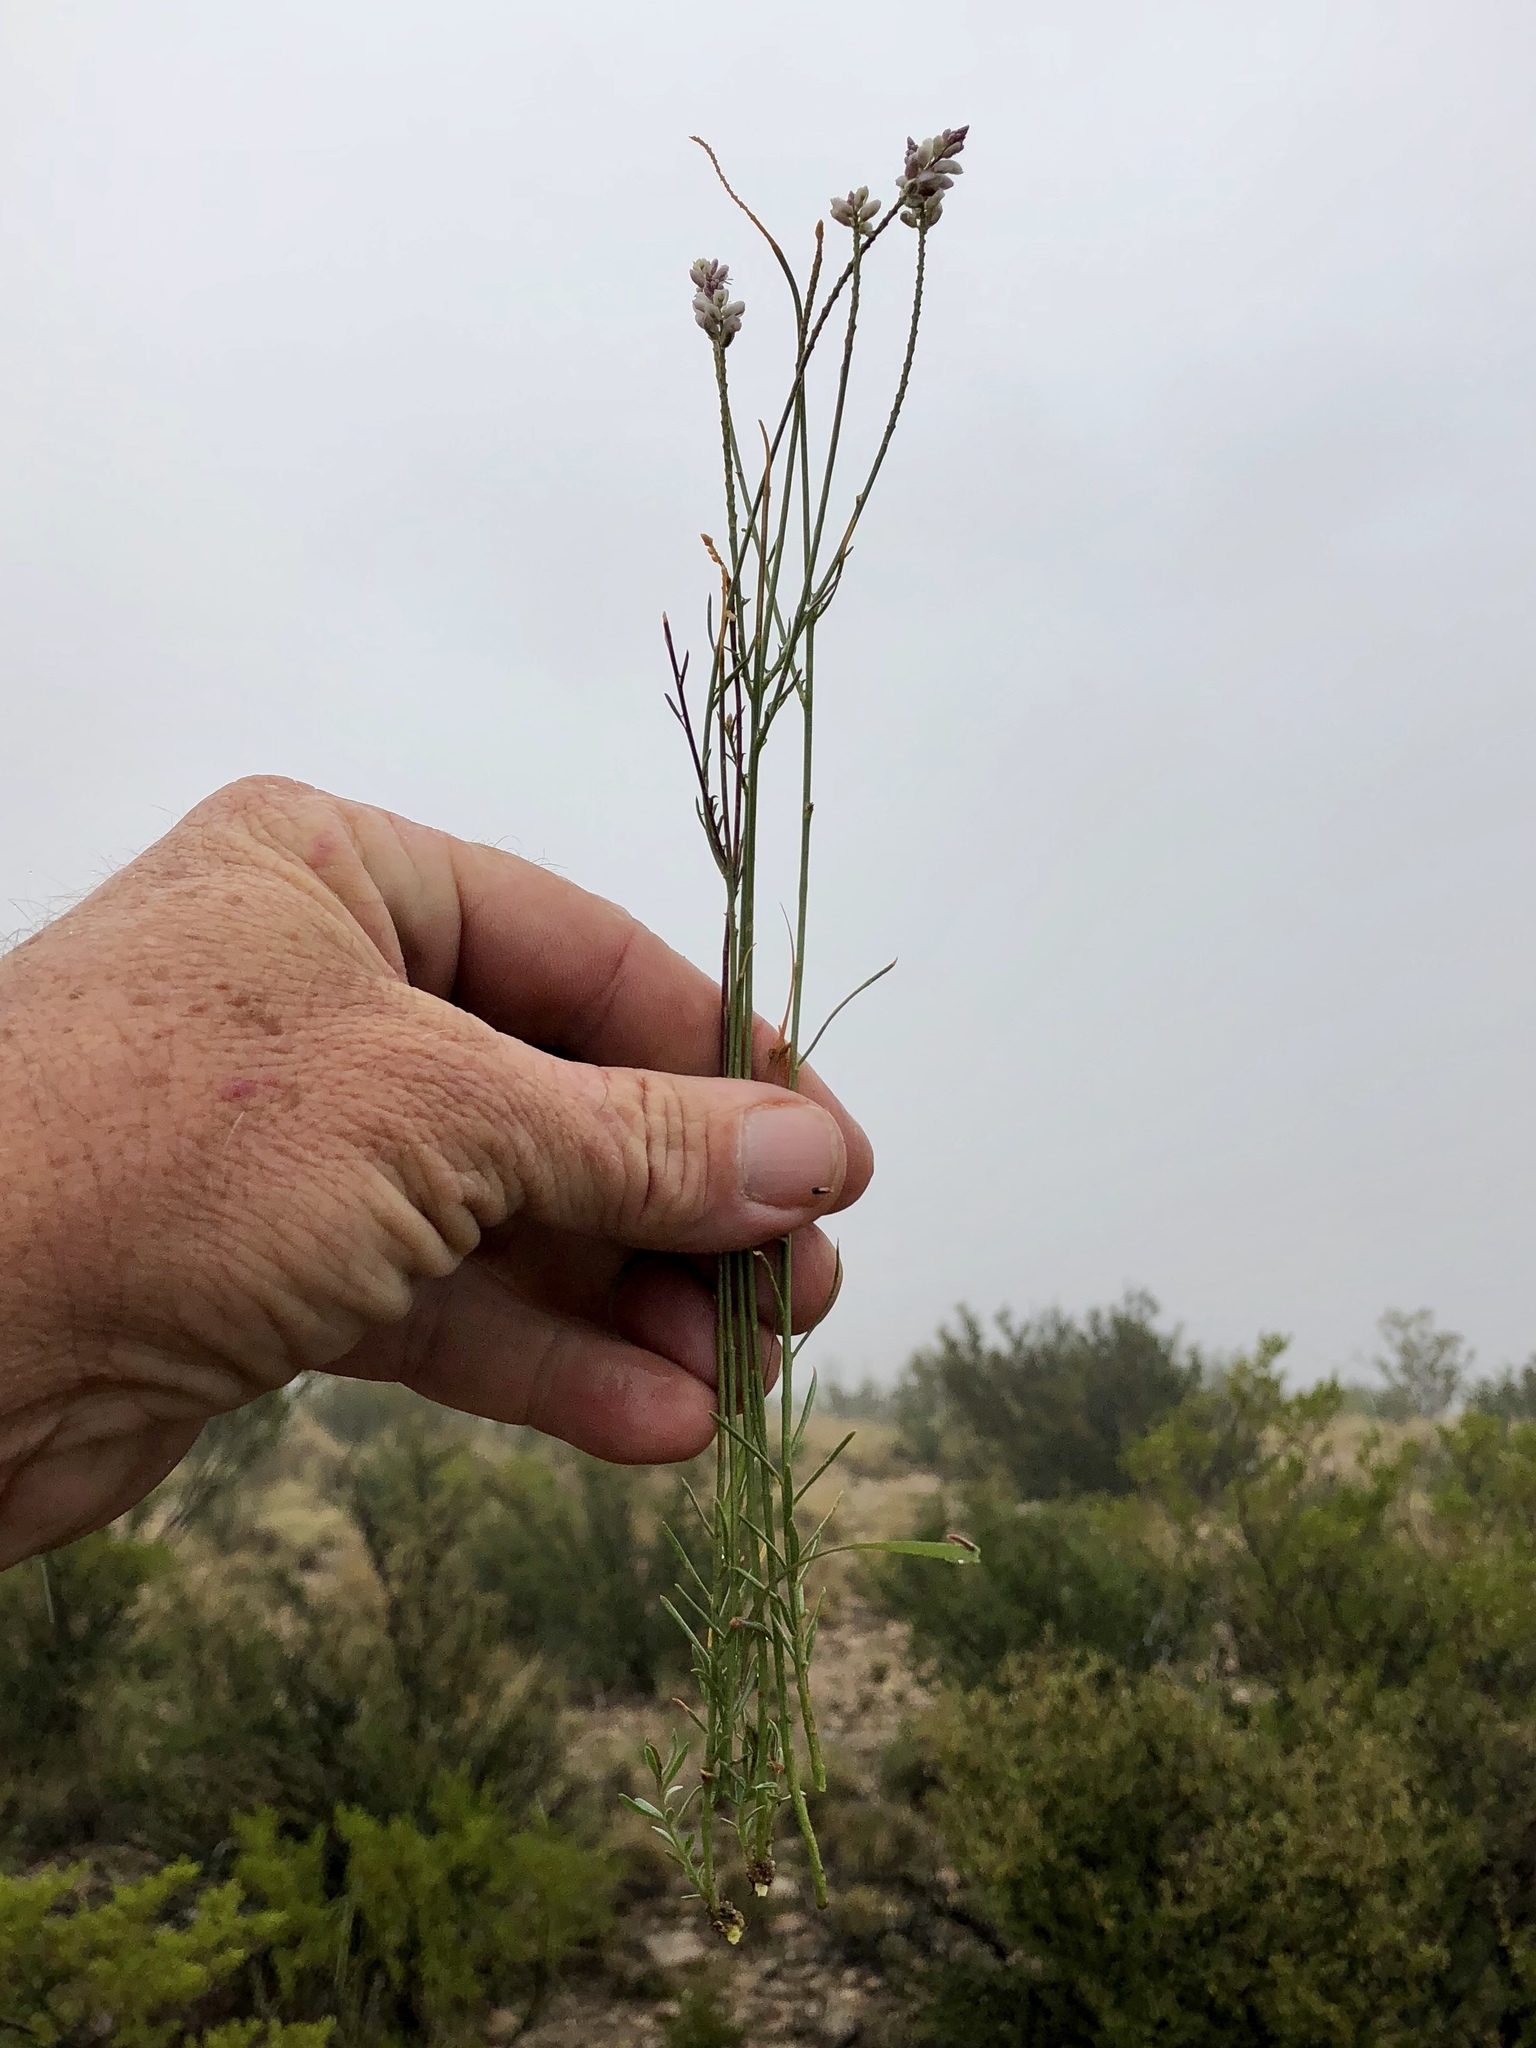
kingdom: Plantae
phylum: Tracheophyta
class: Magnoliopsida
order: Fabales
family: Polygalaceae
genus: Polygala
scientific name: Polygala alba
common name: White milkwort
